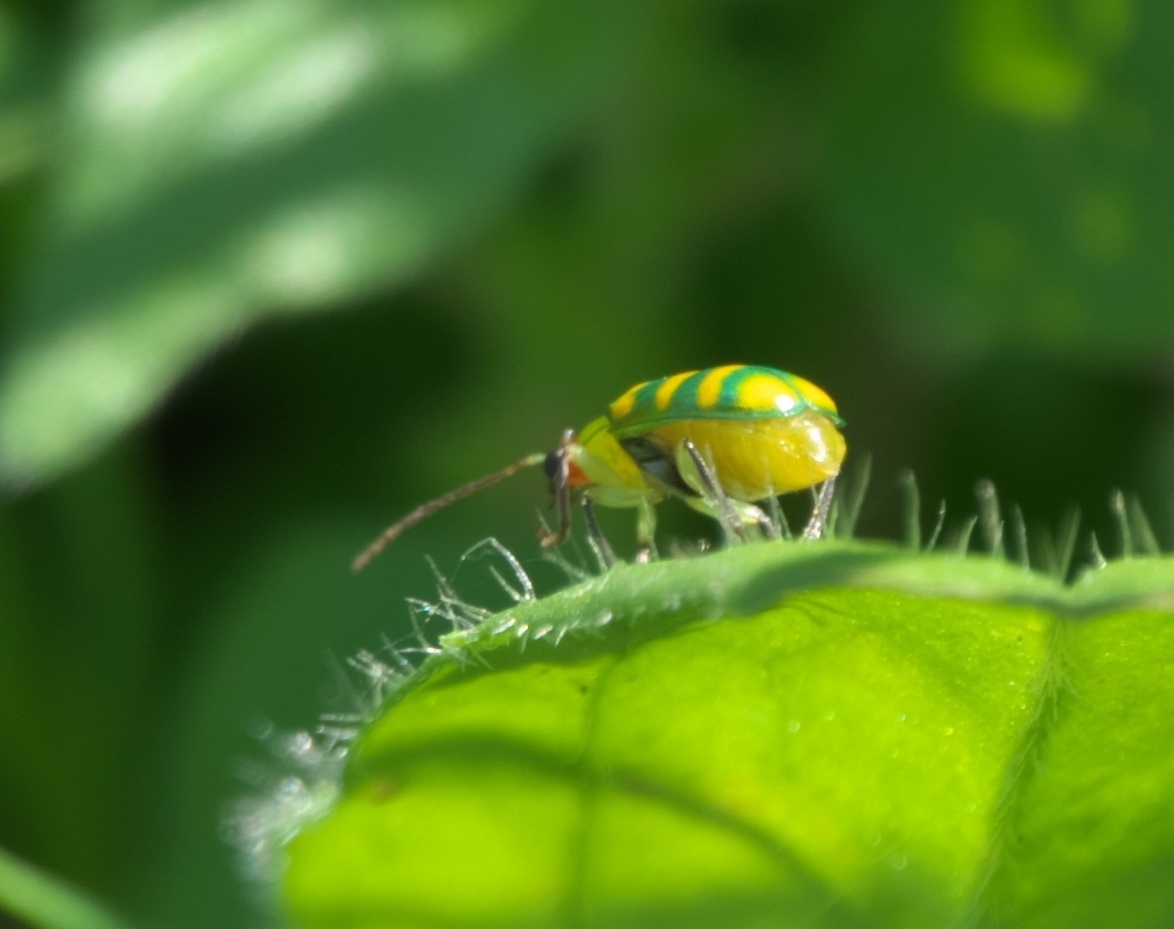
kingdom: Animalia
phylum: Arthropoda
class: Insecta
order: Coleoptera
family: Chrysomelidae
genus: Diabrotica
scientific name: Diabrotica balteata
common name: Leaf beetle
